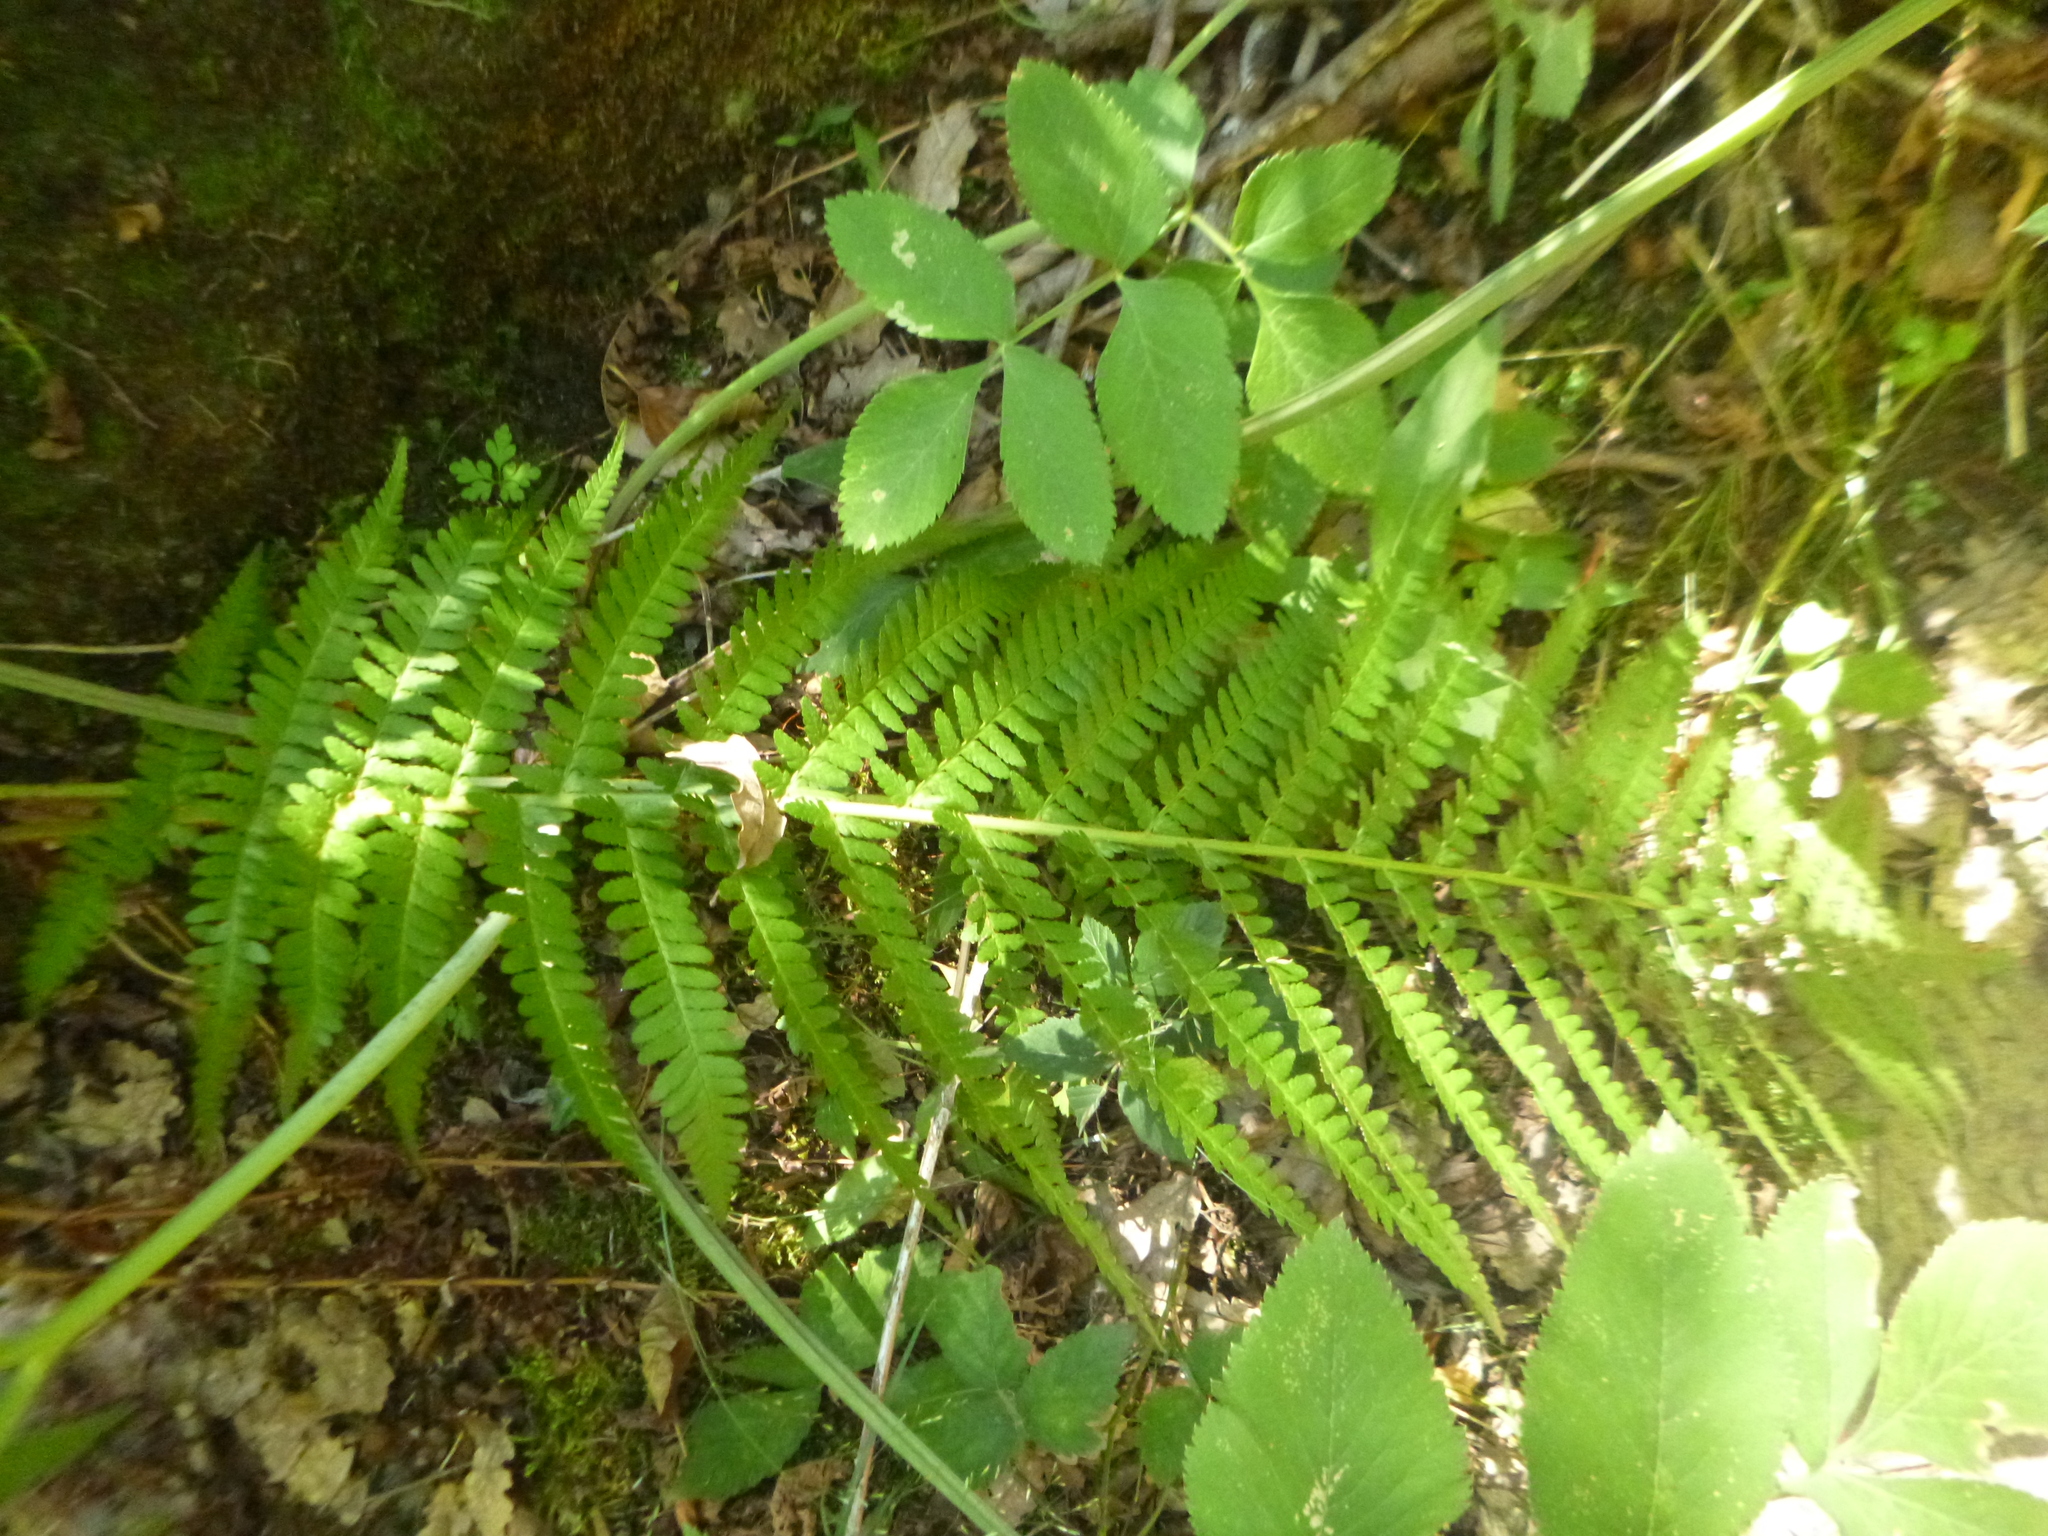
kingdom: Plantae
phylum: Tracheophyta
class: Polypodiopsida
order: Polypodiales
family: Dryopteridaceae
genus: Dryopteris
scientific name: Dryopteris filix-mas
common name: Male fern
